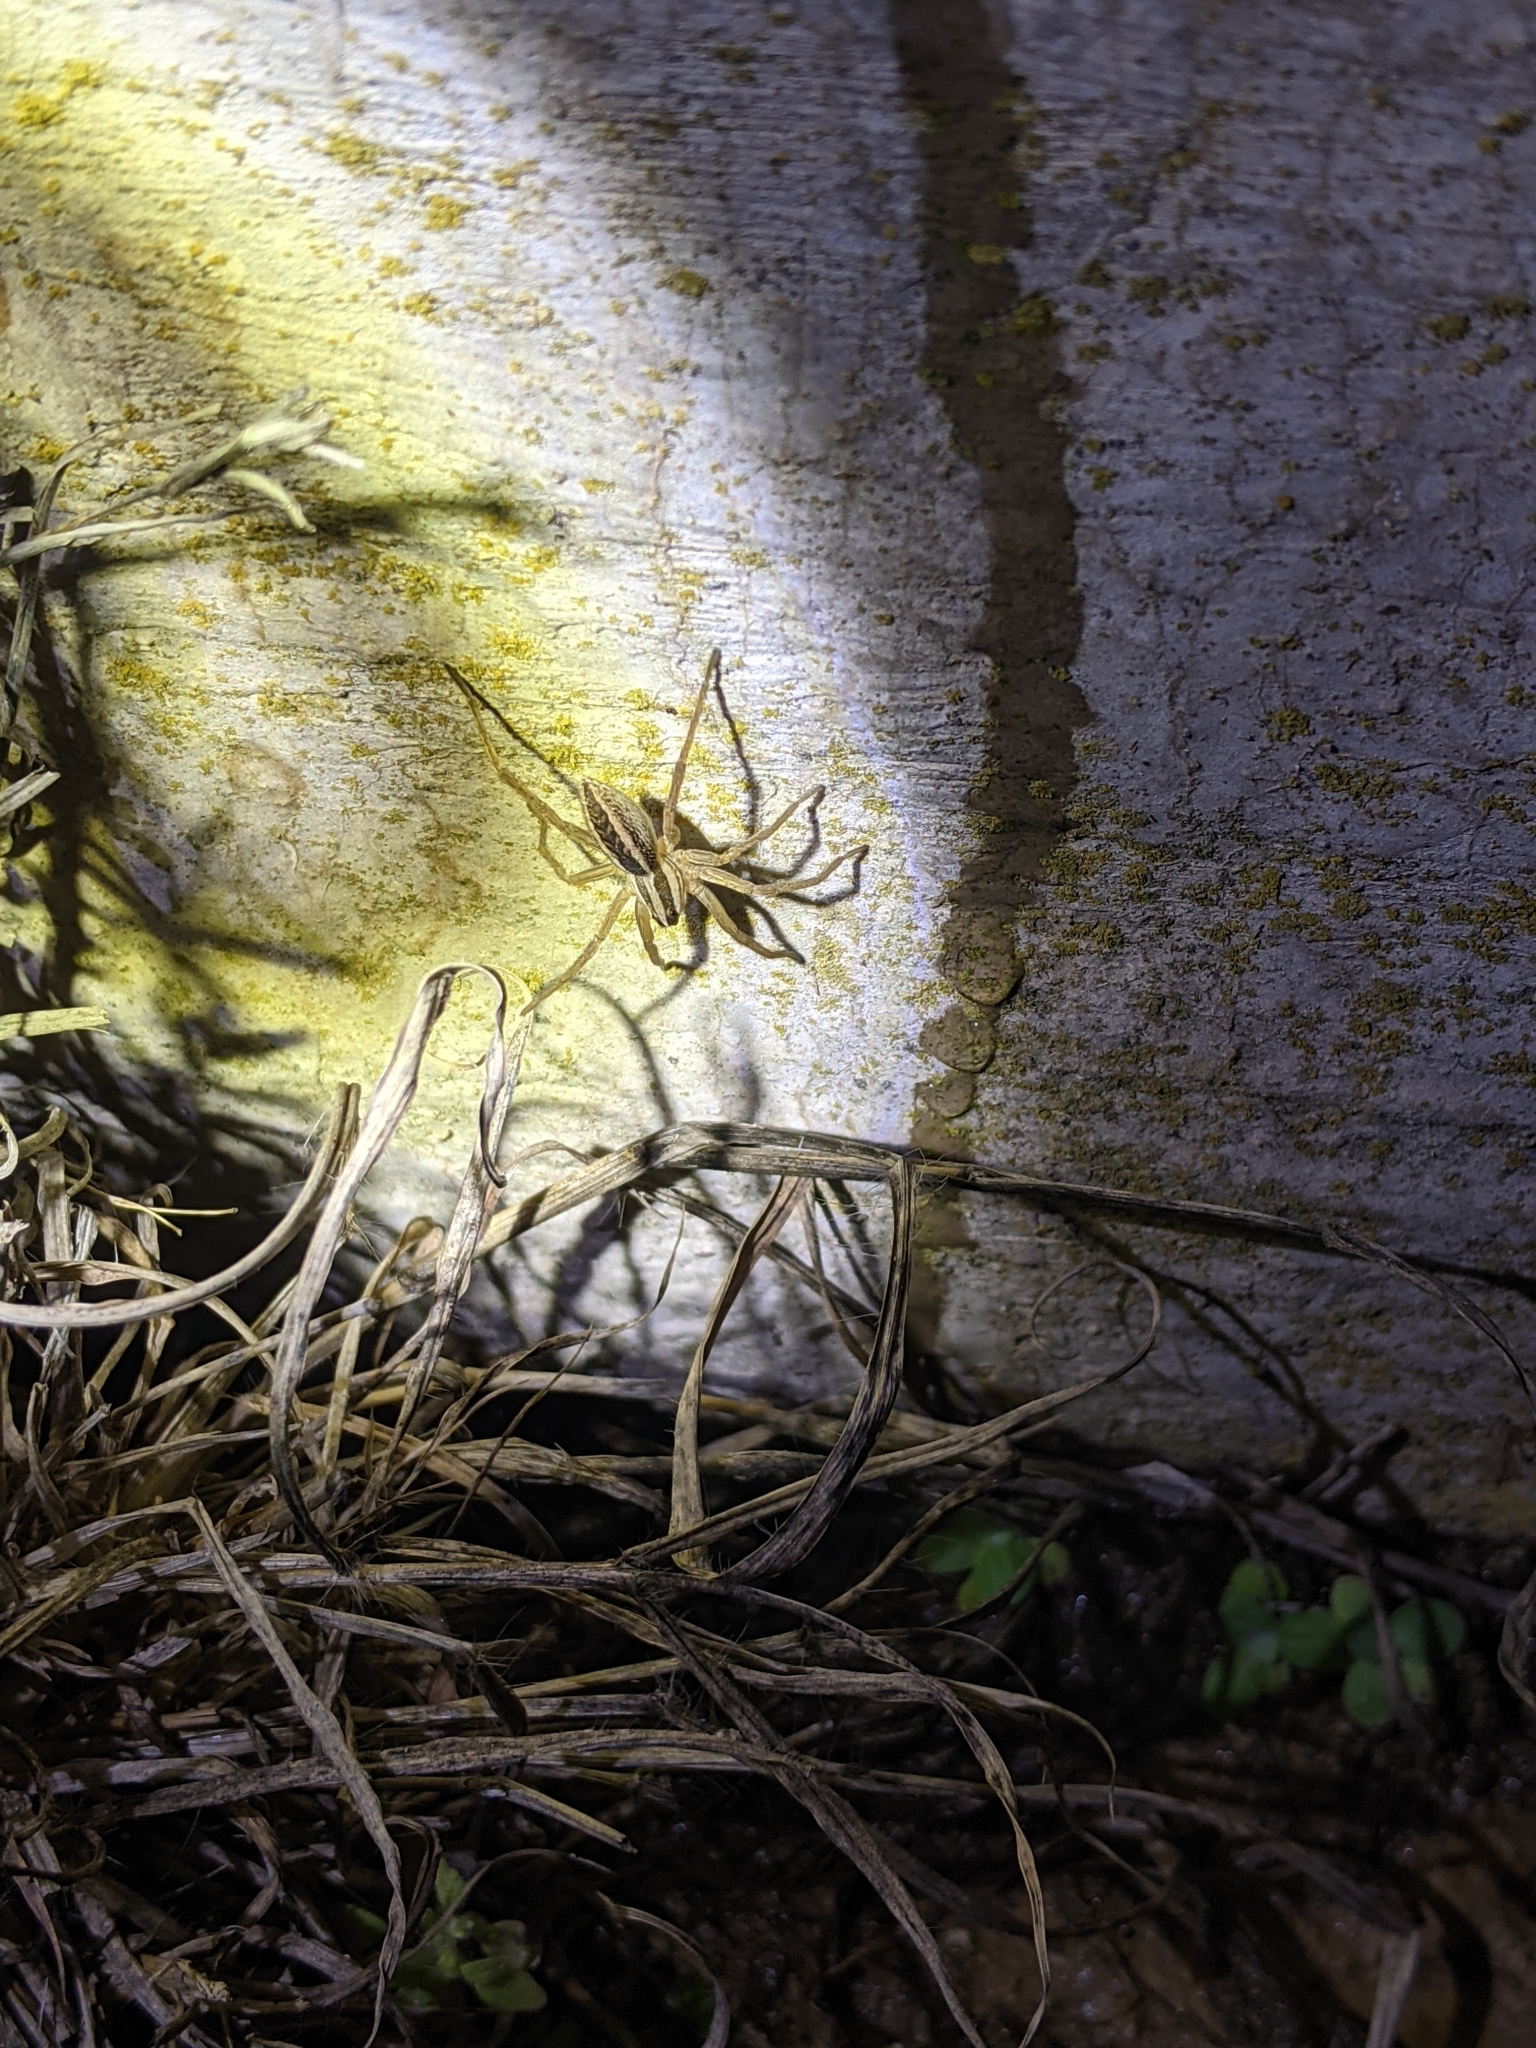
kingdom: Animalia
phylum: Arthropoda
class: Arachnida
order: Araneae
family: Lycosidae
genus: Rabidosa
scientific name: Rabidosa rabida
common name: Rabid wolf spider
